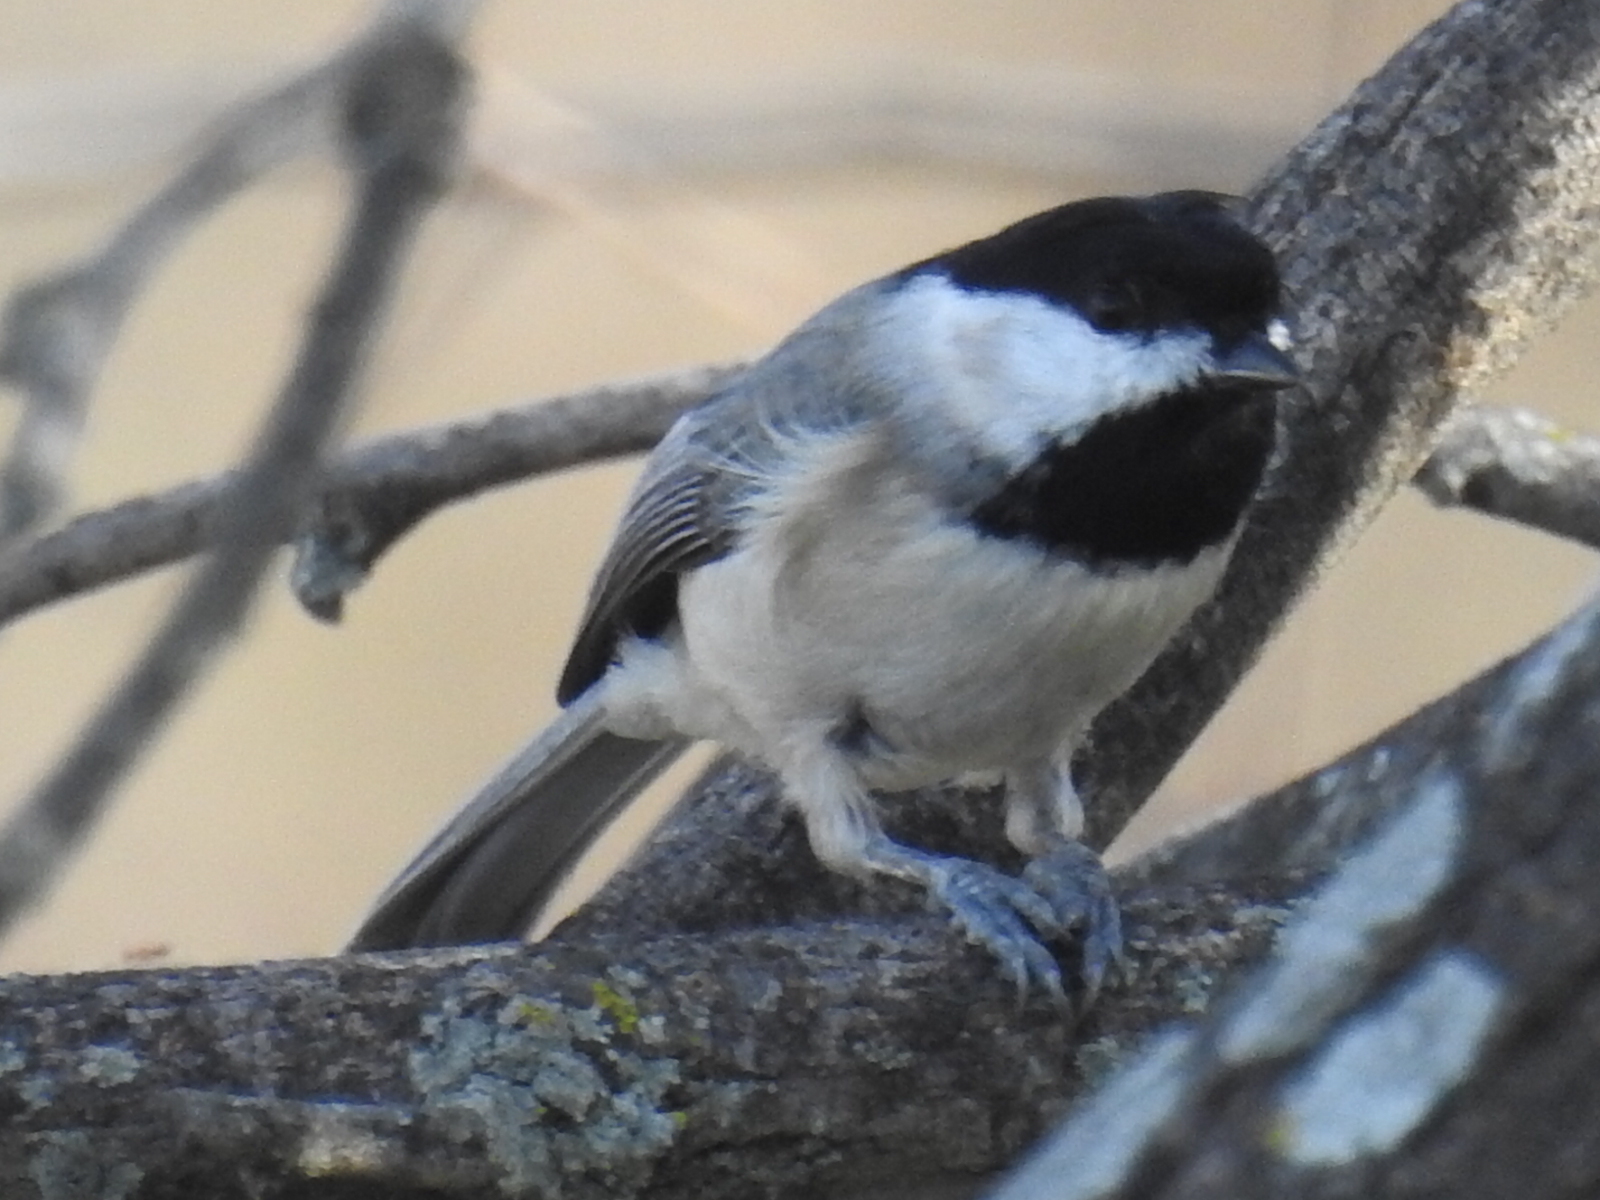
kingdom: Animalia
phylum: Chordata
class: Aves
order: Passeriformes
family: Paridae
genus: Poecile
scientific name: Poecile carolinensis
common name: Carolina chickadee
